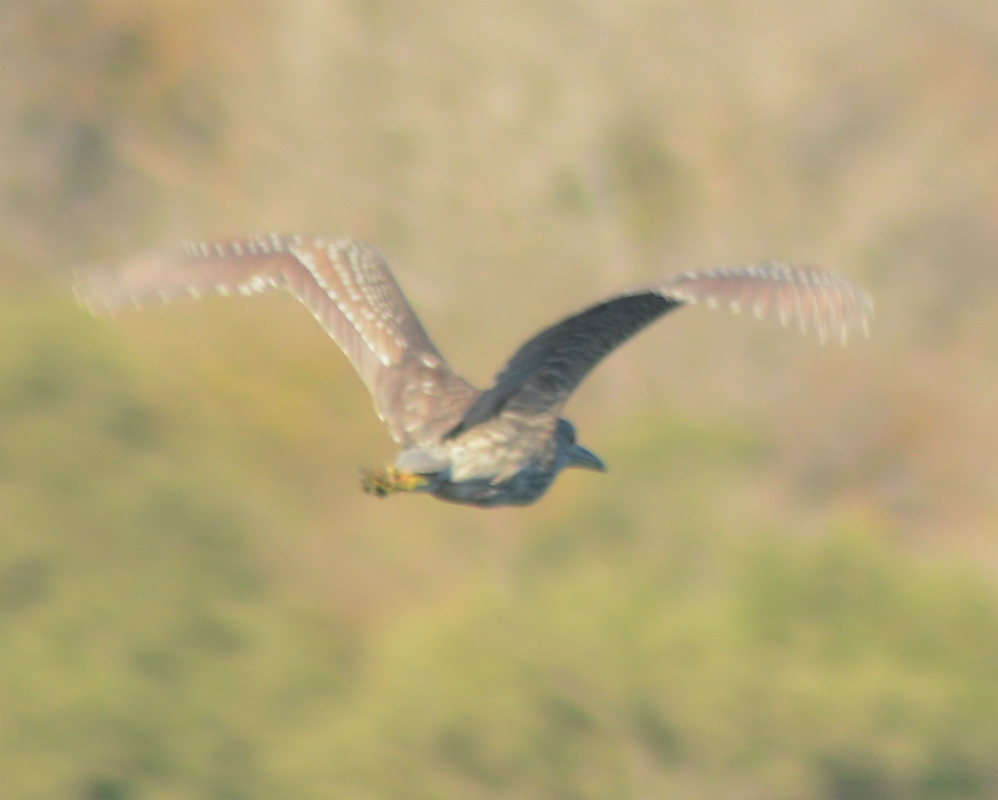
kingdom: Animalia
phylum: Chordata
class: Aves
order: Pelecaniformes
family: Ardeidae
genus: Nycticorax
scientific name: Nycticorax nycticorax
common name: Black-crowned night heron
